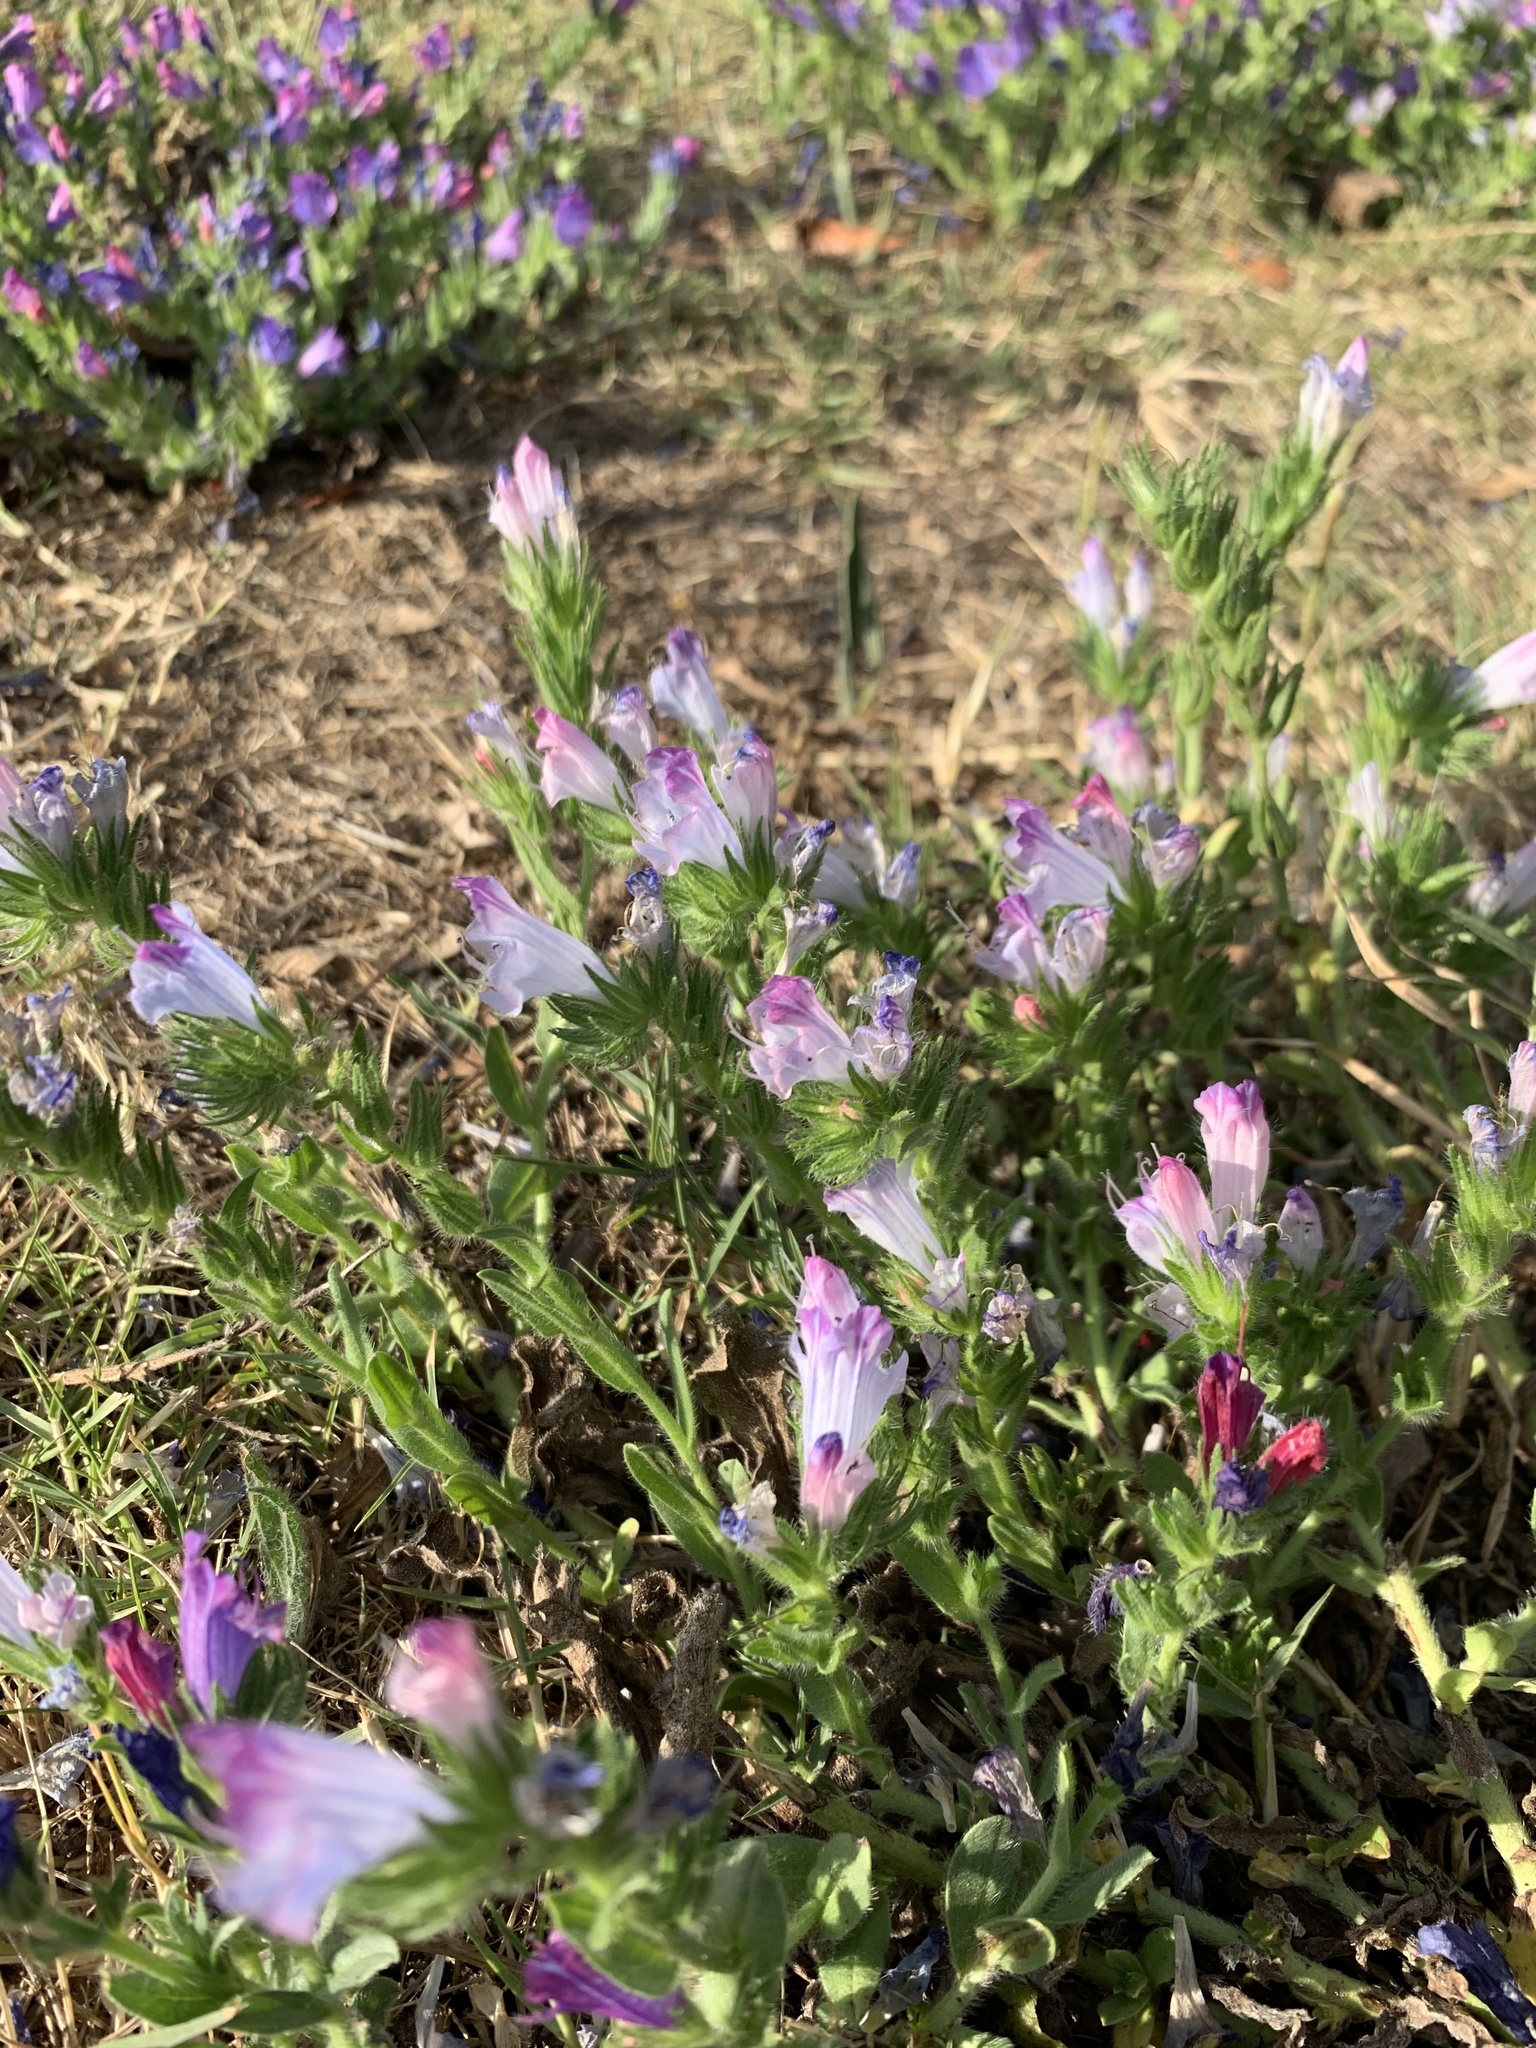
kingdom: Plantae
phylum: Tracheophyta
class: Magnoliopsida
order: Boraginales
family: Boraginaceae
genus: Echium
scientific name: Echium plantagineum
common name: Purple viper's-bugloss
